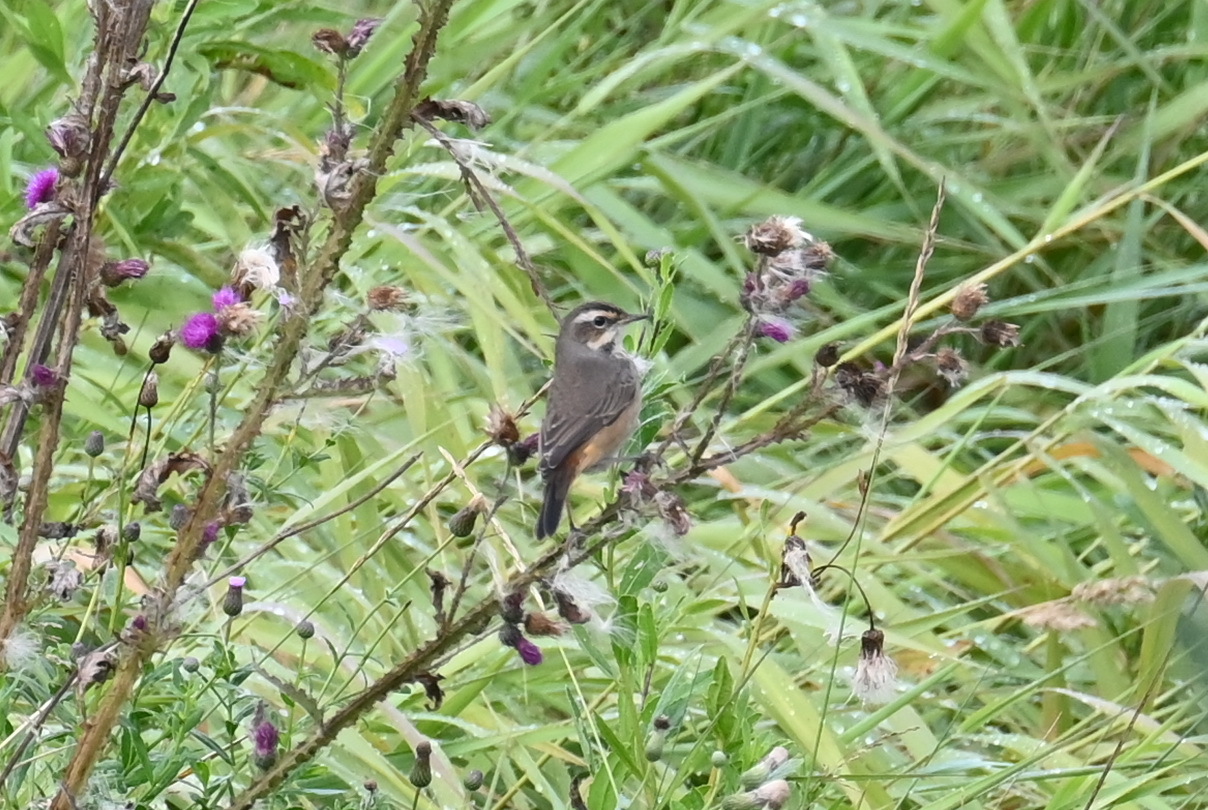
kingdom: Animalia
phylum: Chordata
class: Aves
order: Passeriformes
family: Muscicapidae
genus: Luscinia
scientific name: Luscinia svecica
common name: Bluethroat
